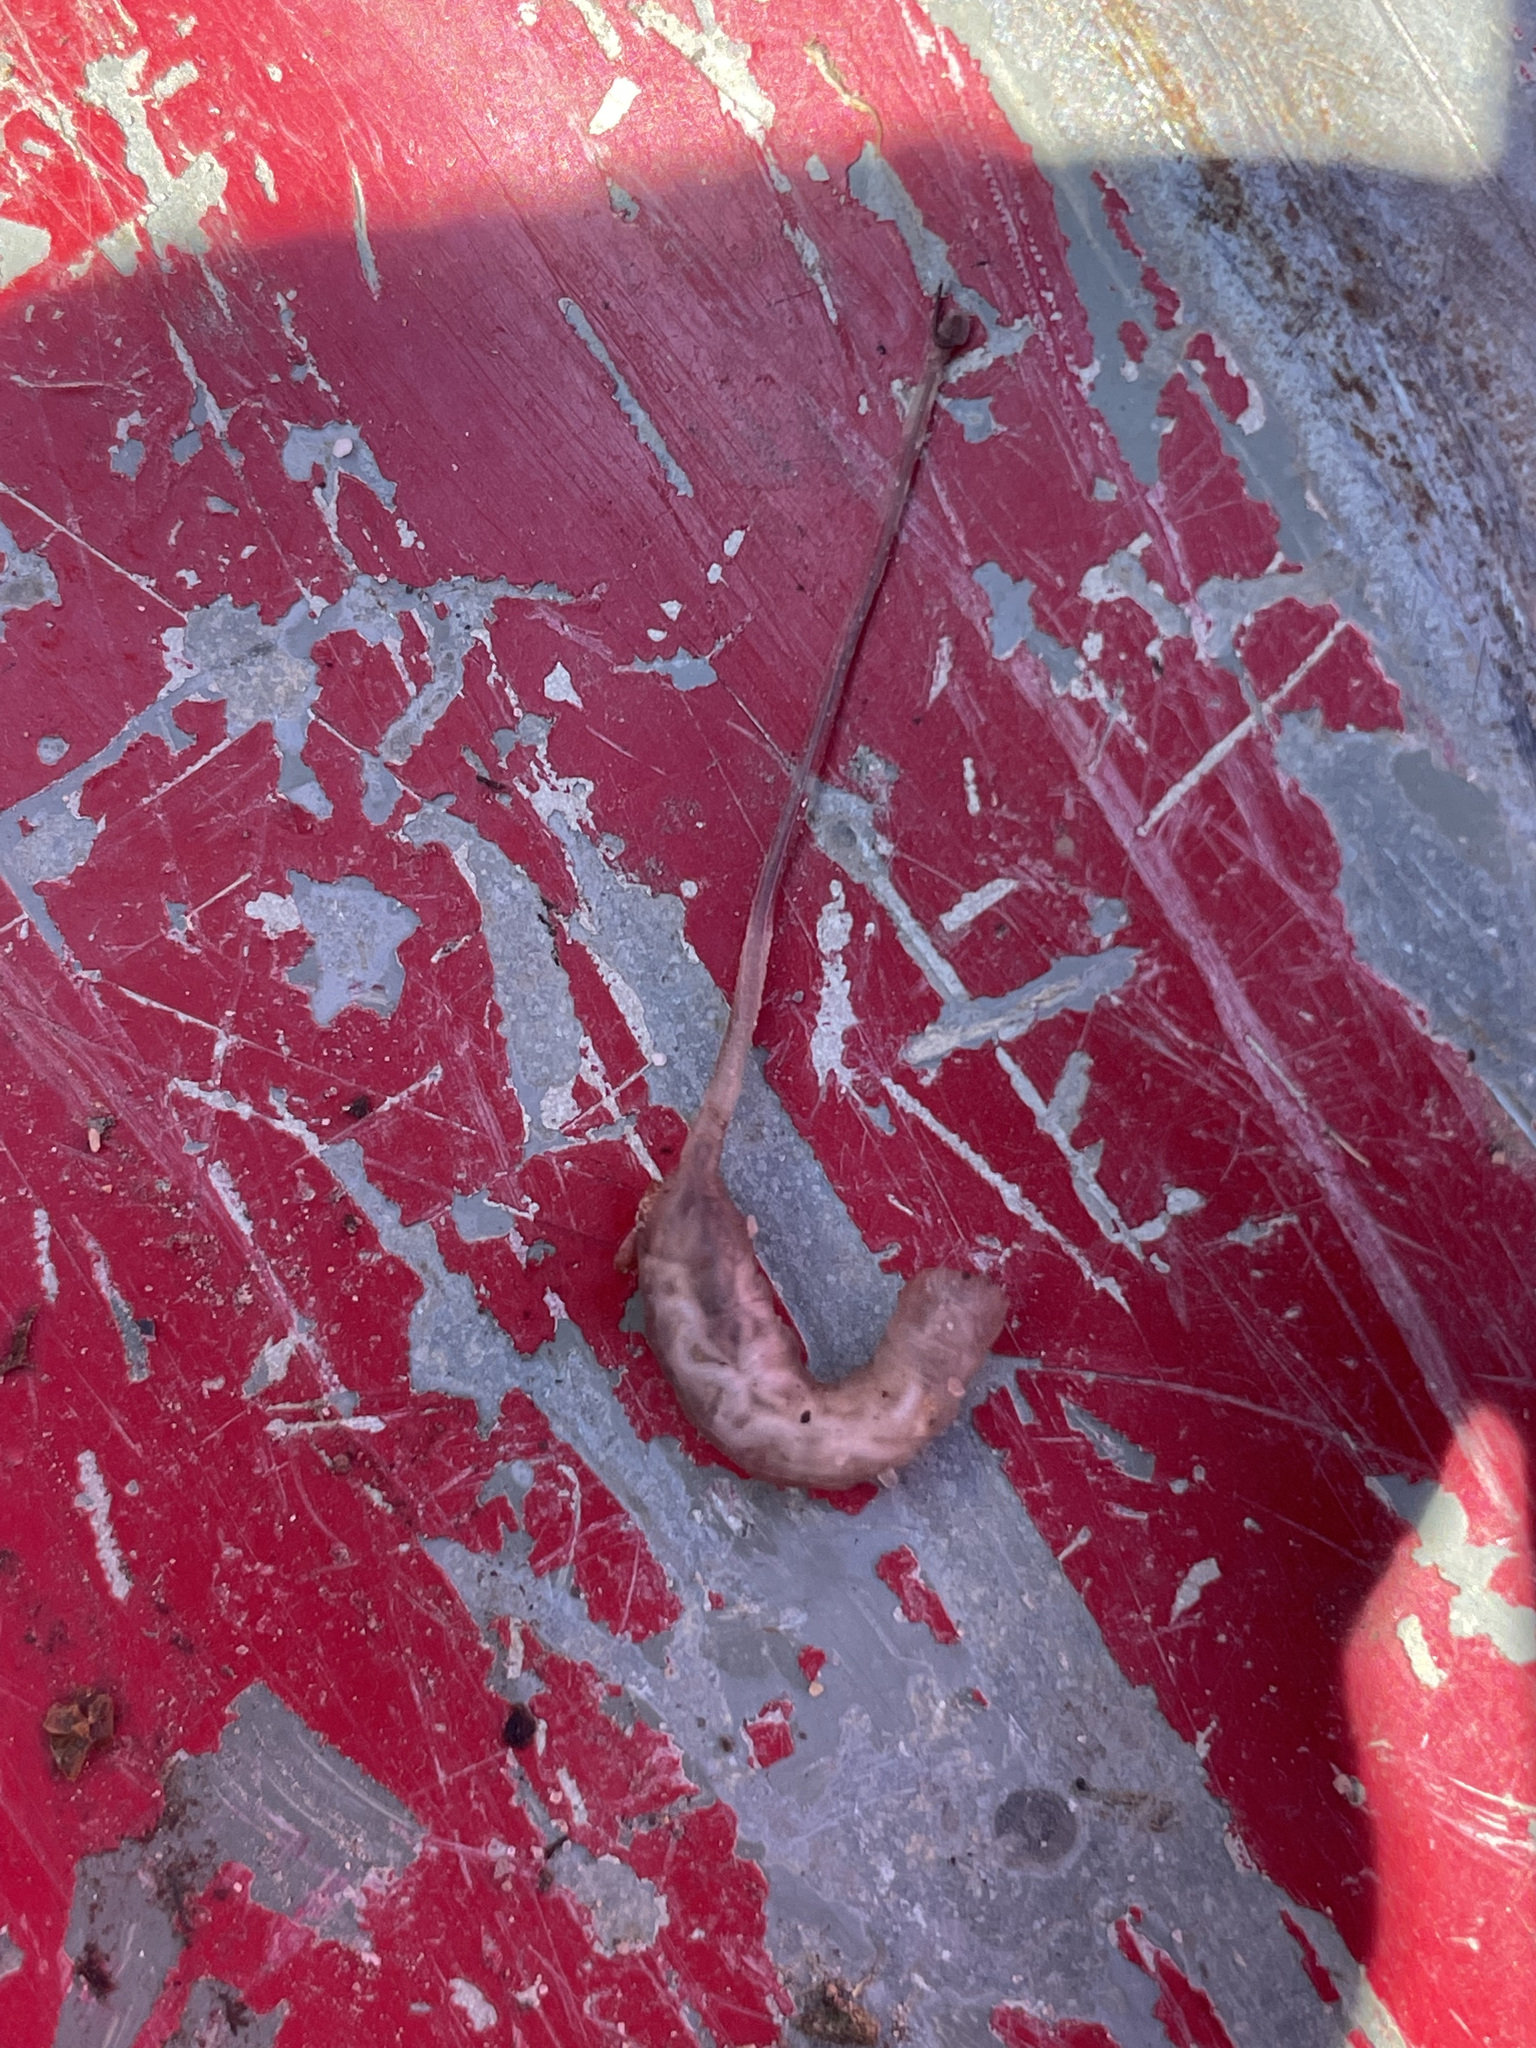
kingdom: Animalia
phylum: Arthropoda
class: Insecta
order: Diptera
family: Syrphidae
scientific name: Syrphidae
